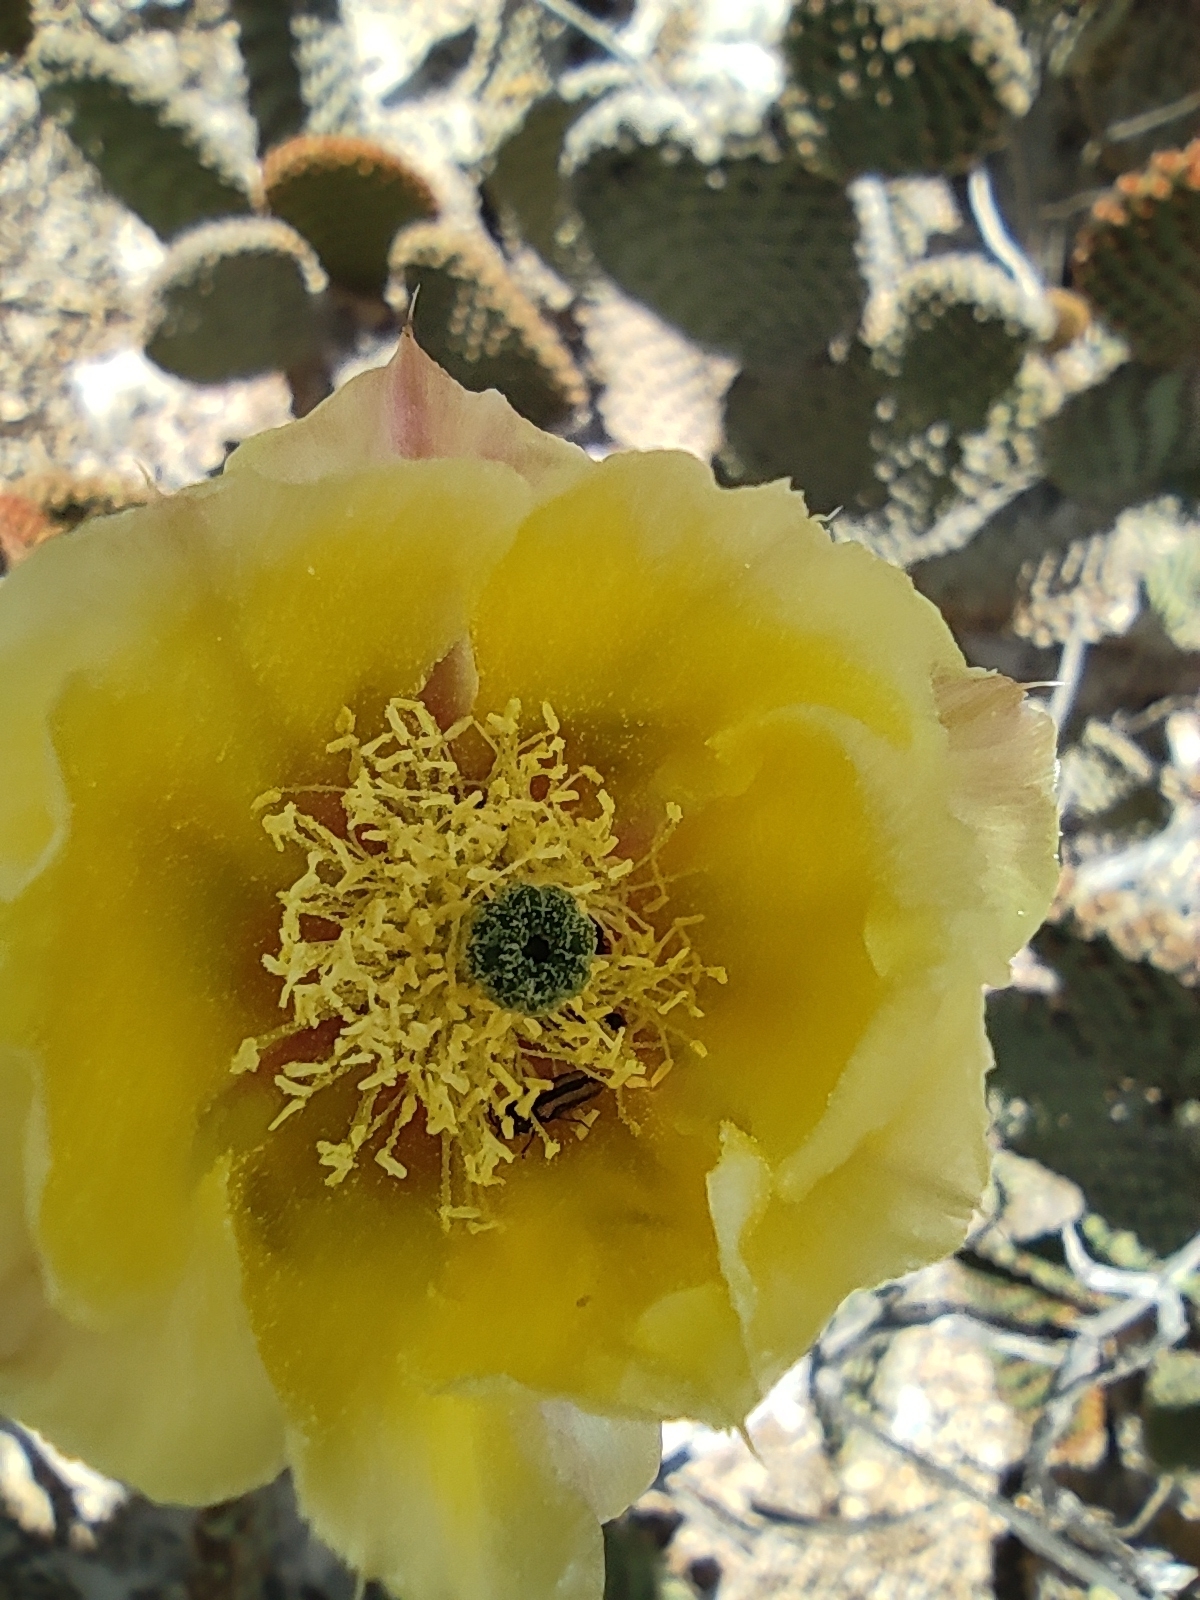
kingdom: Plantae
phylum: Tracheophyta
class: Magnoliopsida
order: Caryophyllales
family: Cactaceae
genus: Opuntia
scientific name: Opuntia rufida
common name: Blind pricklypear
